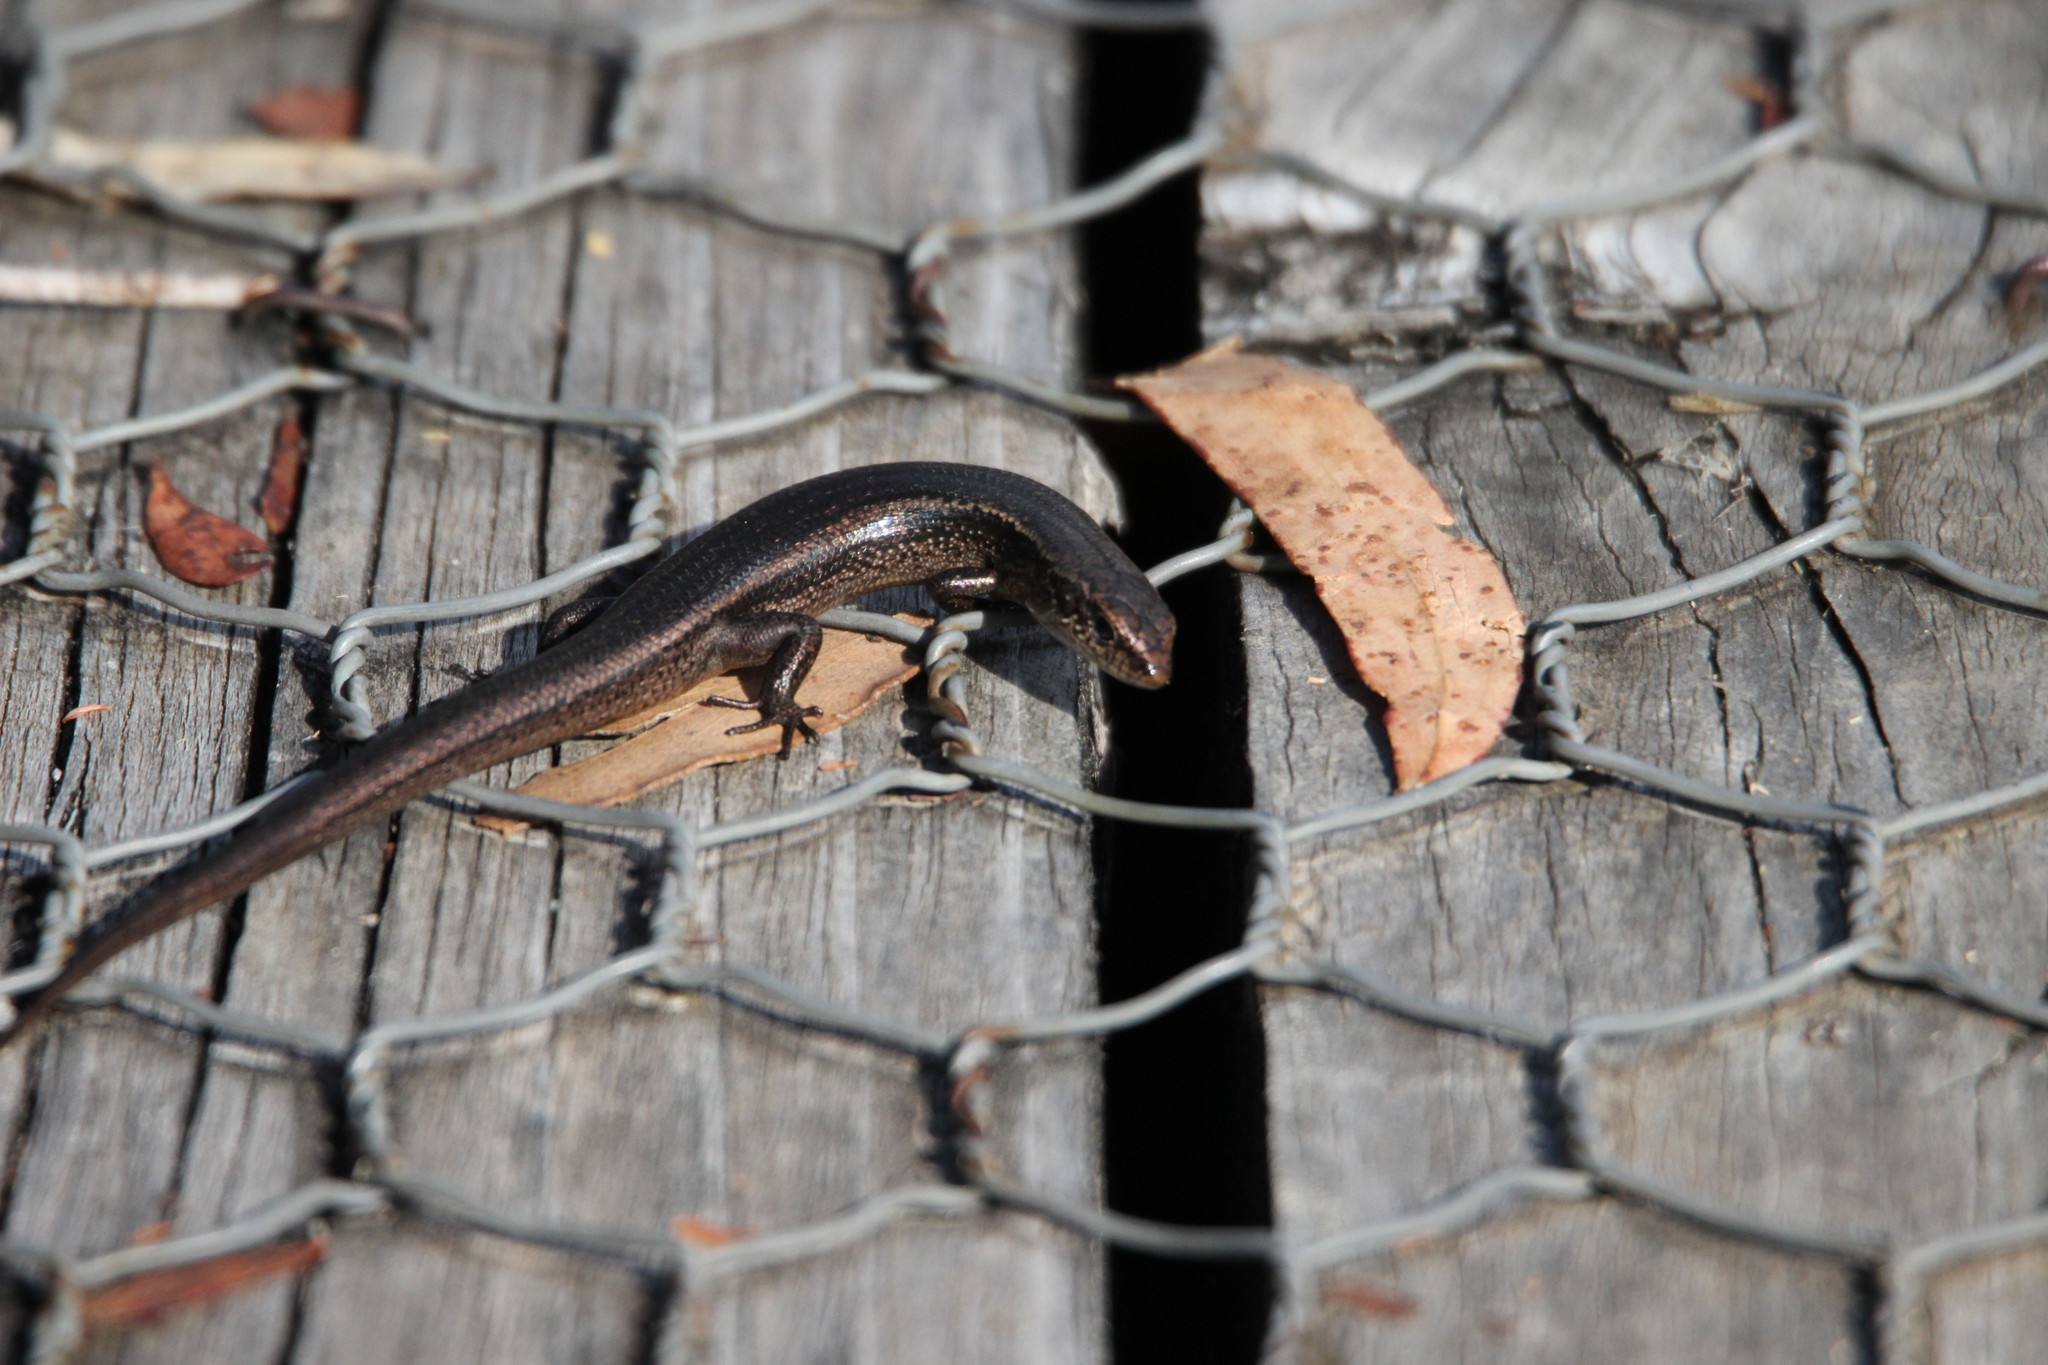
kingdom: Animalia
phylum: Chordata
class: Squamata
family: Scincidae
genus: Carinascincus
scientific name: Carinascincus metallicus
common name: Metallic cool-skink
